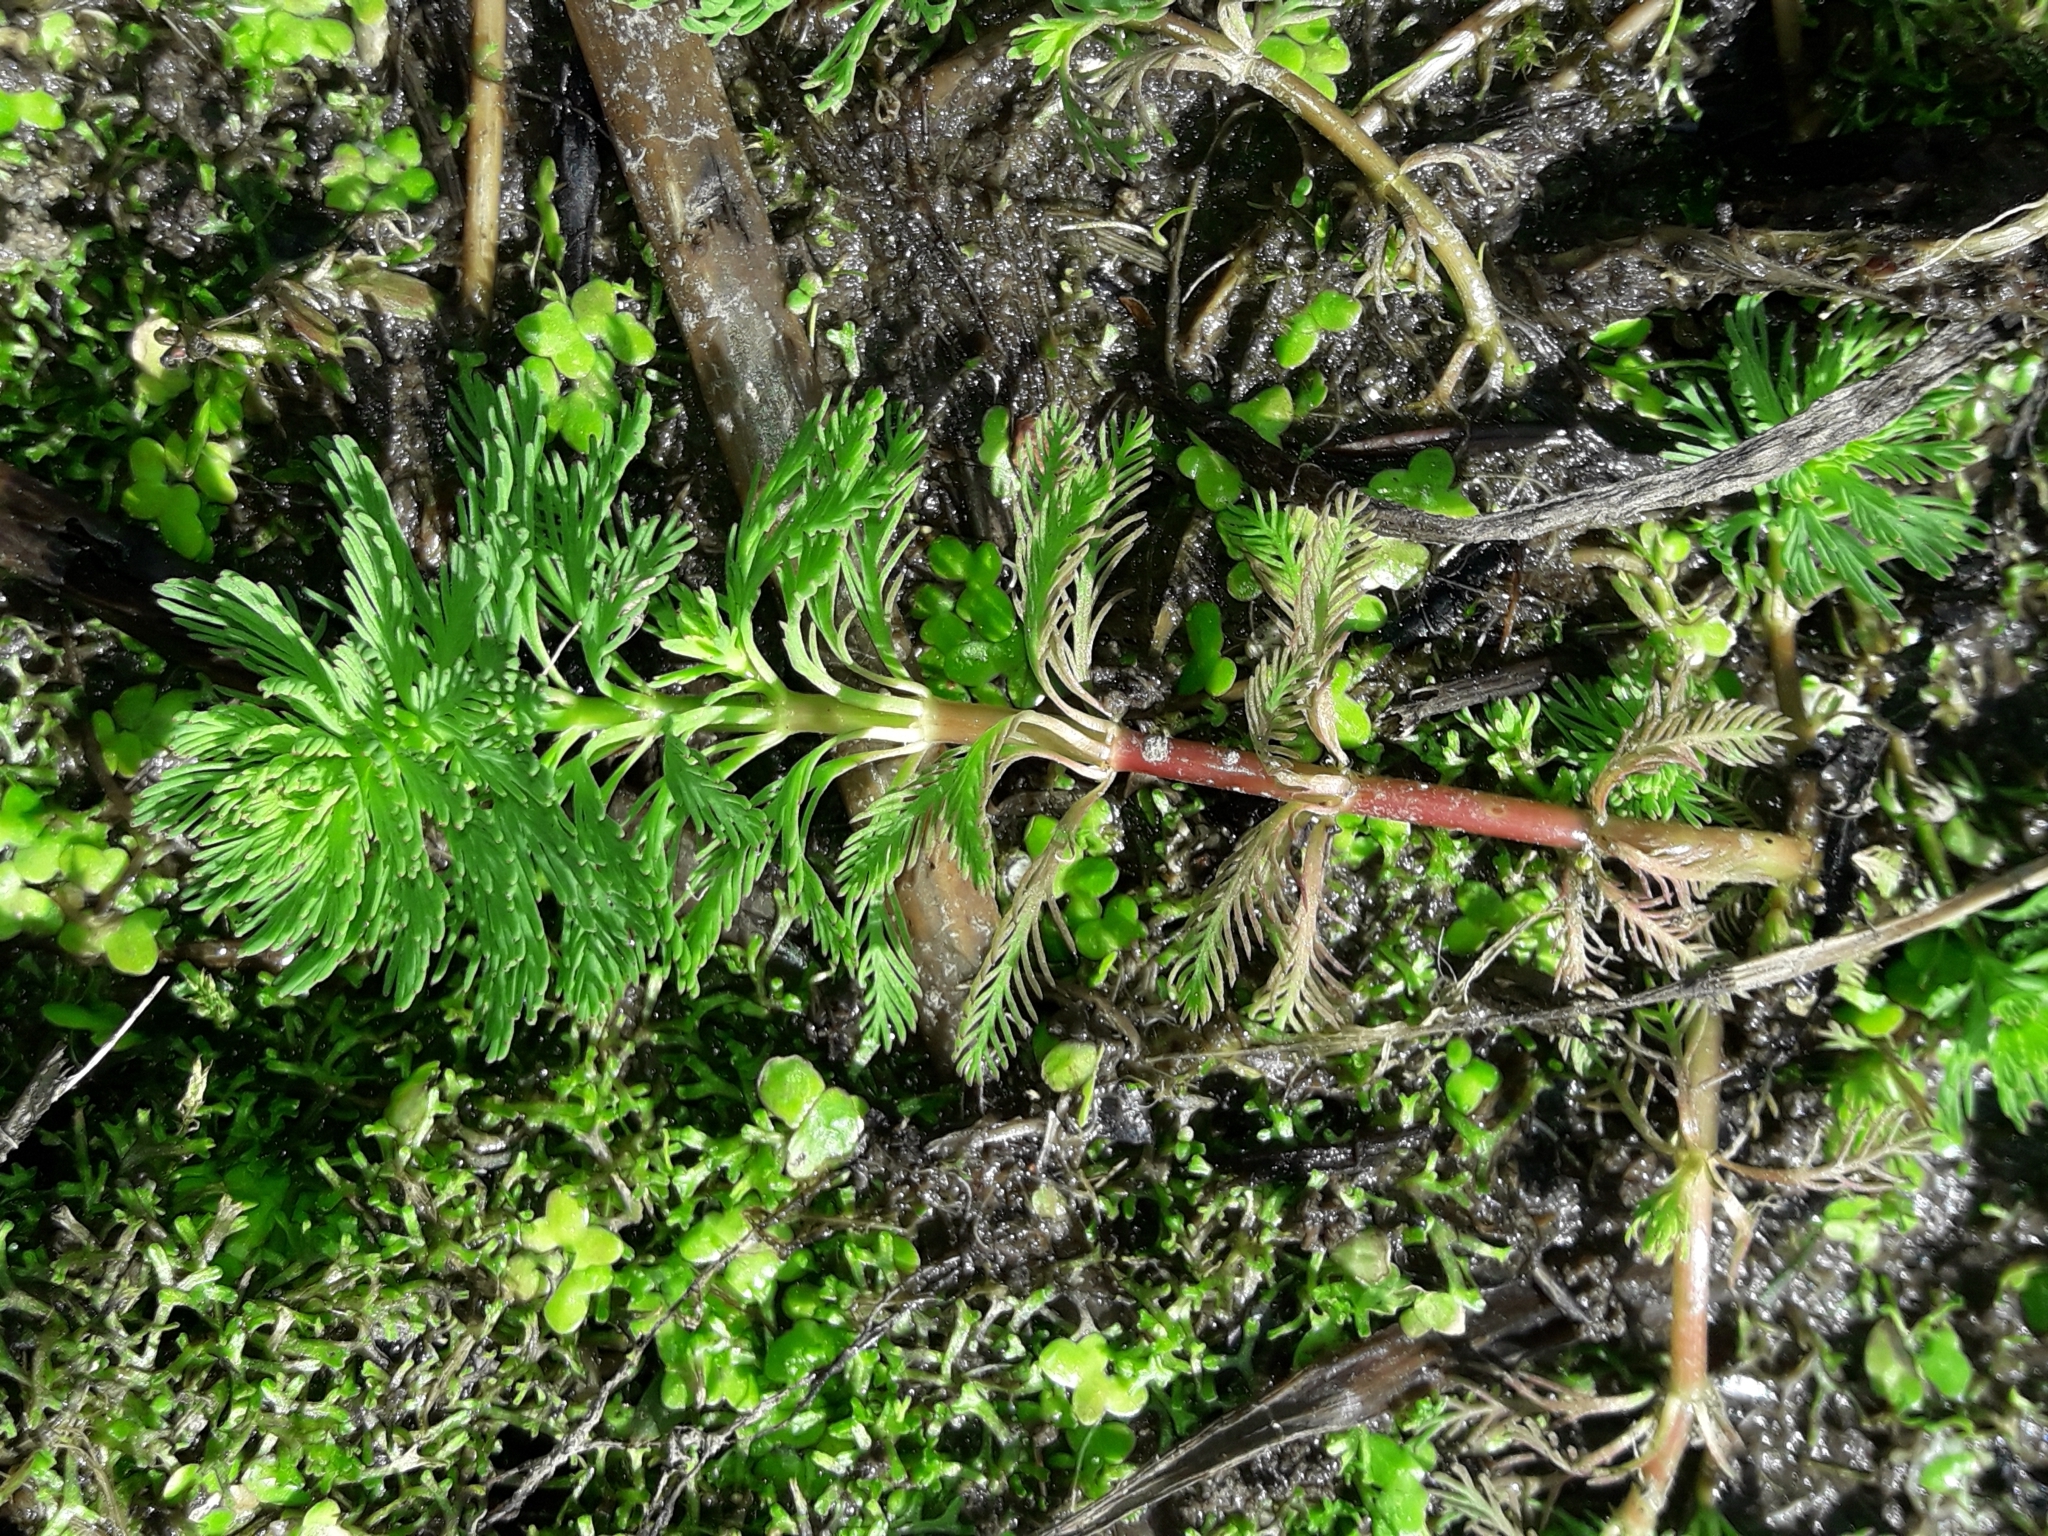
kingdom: Plantae
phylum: Tracheophyta
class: Magnoliopsida
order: Saxifragales
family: Haloragaceae
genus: Myriophyllum
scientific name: Myriophyllum aquaticum
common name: Parrot's feather
